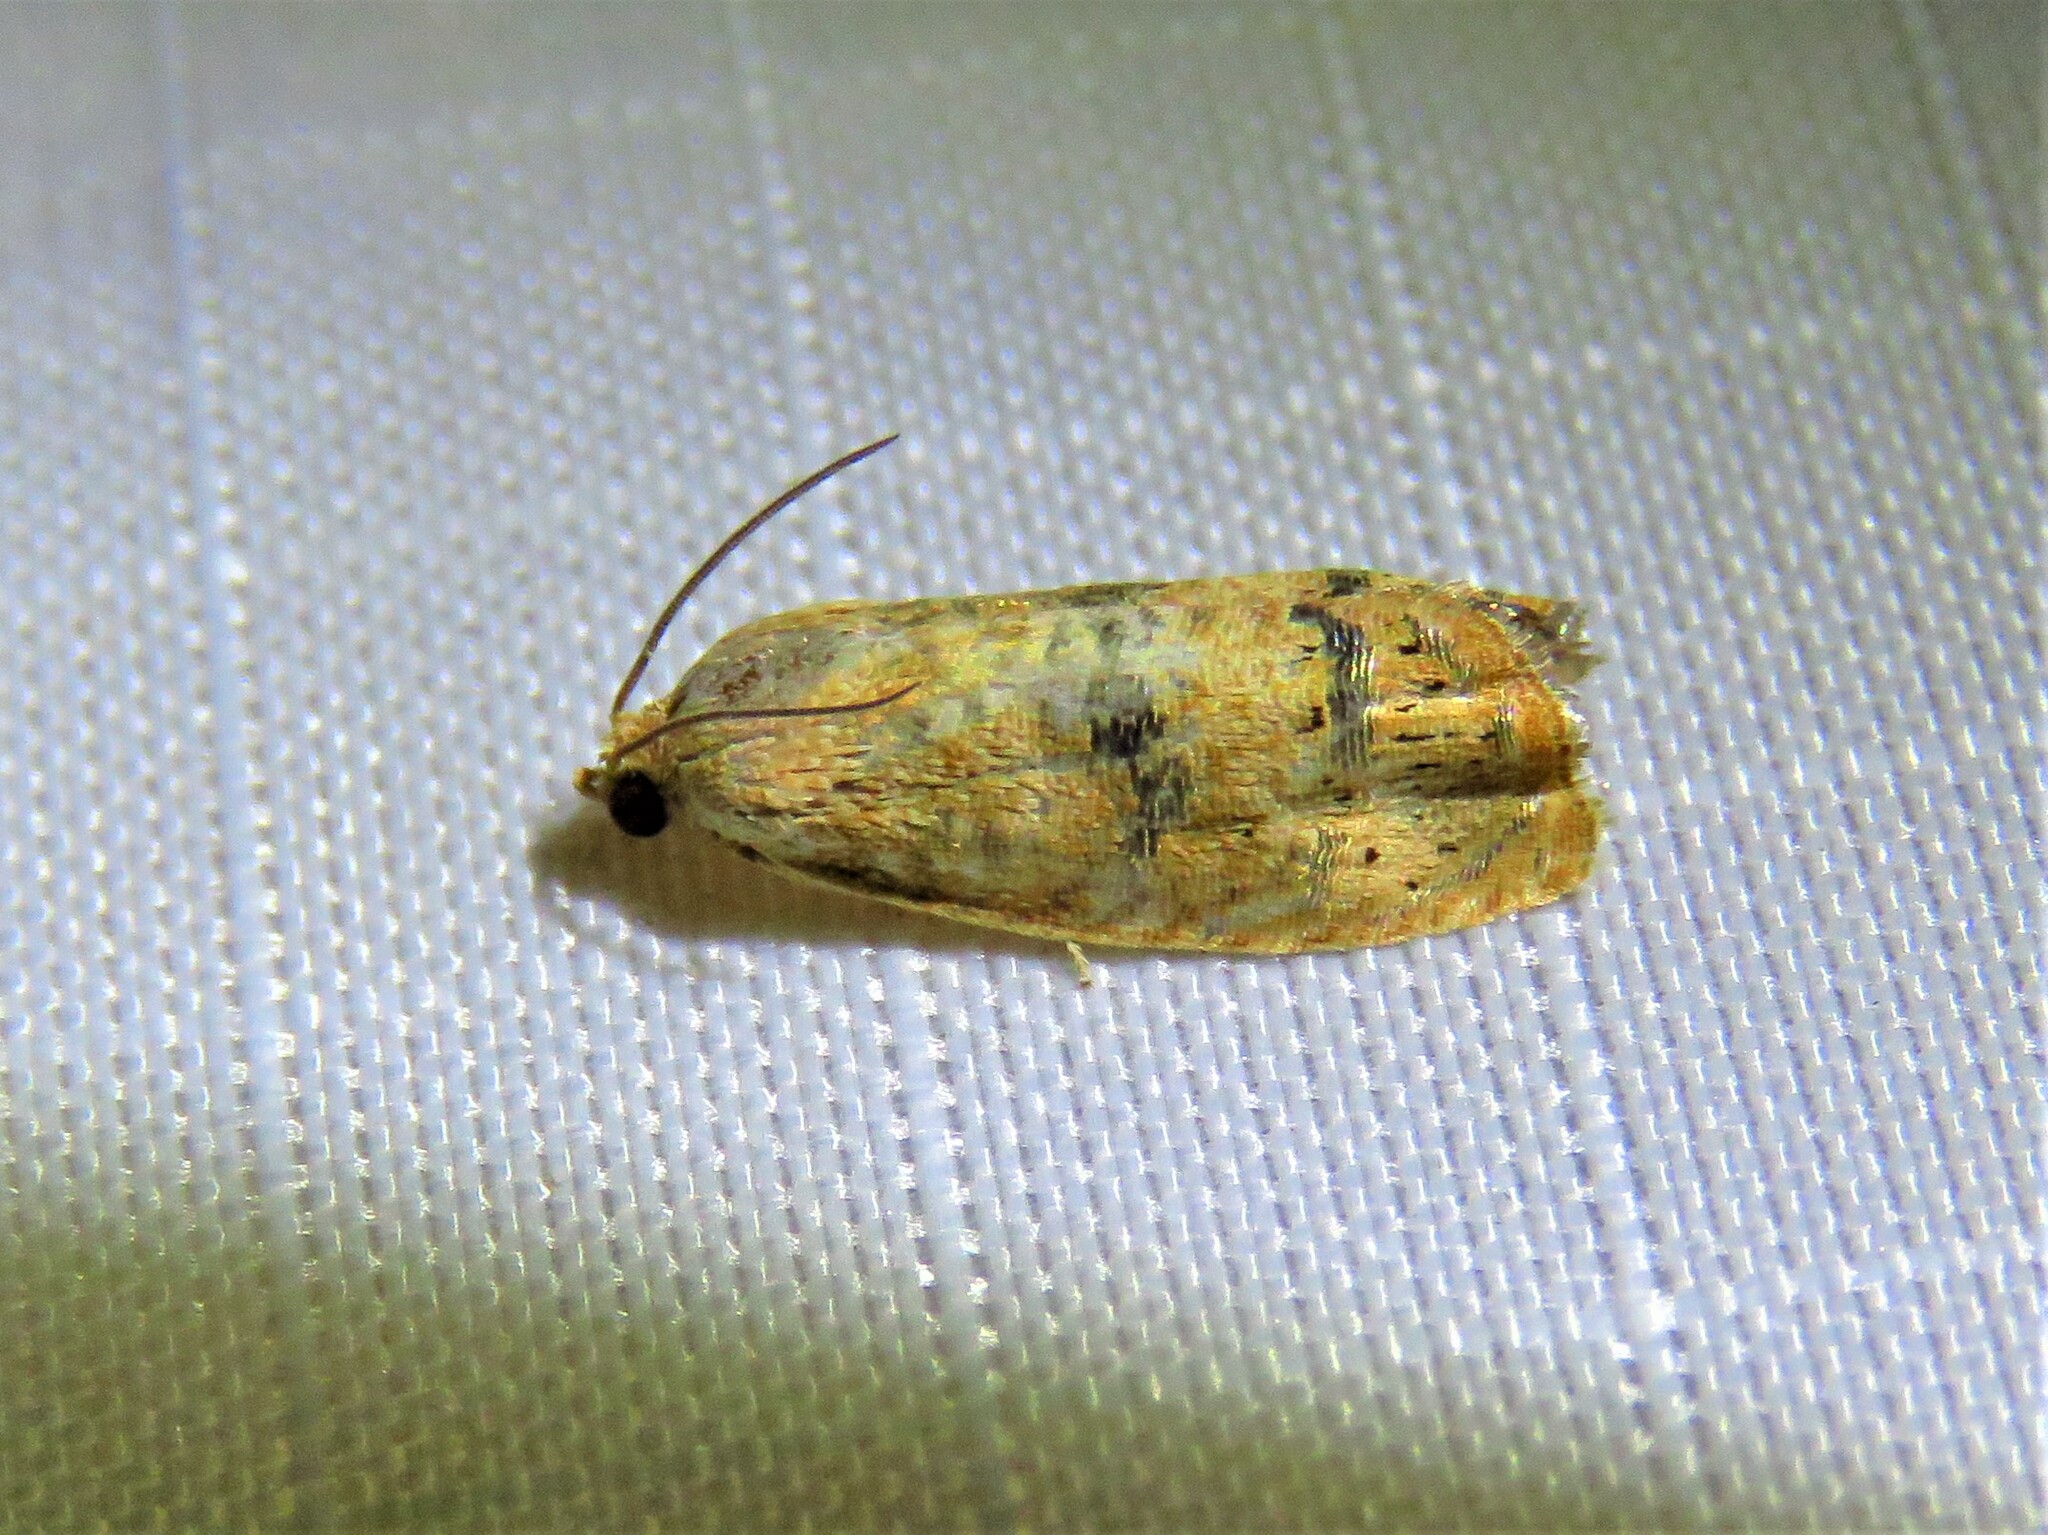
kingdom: Animalia
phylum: Arthropoda
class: Insecta
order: Lepidoptera
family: Tortricidae
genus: Cydia
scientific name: Cydia latiferreana
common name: Filbertworm moth
